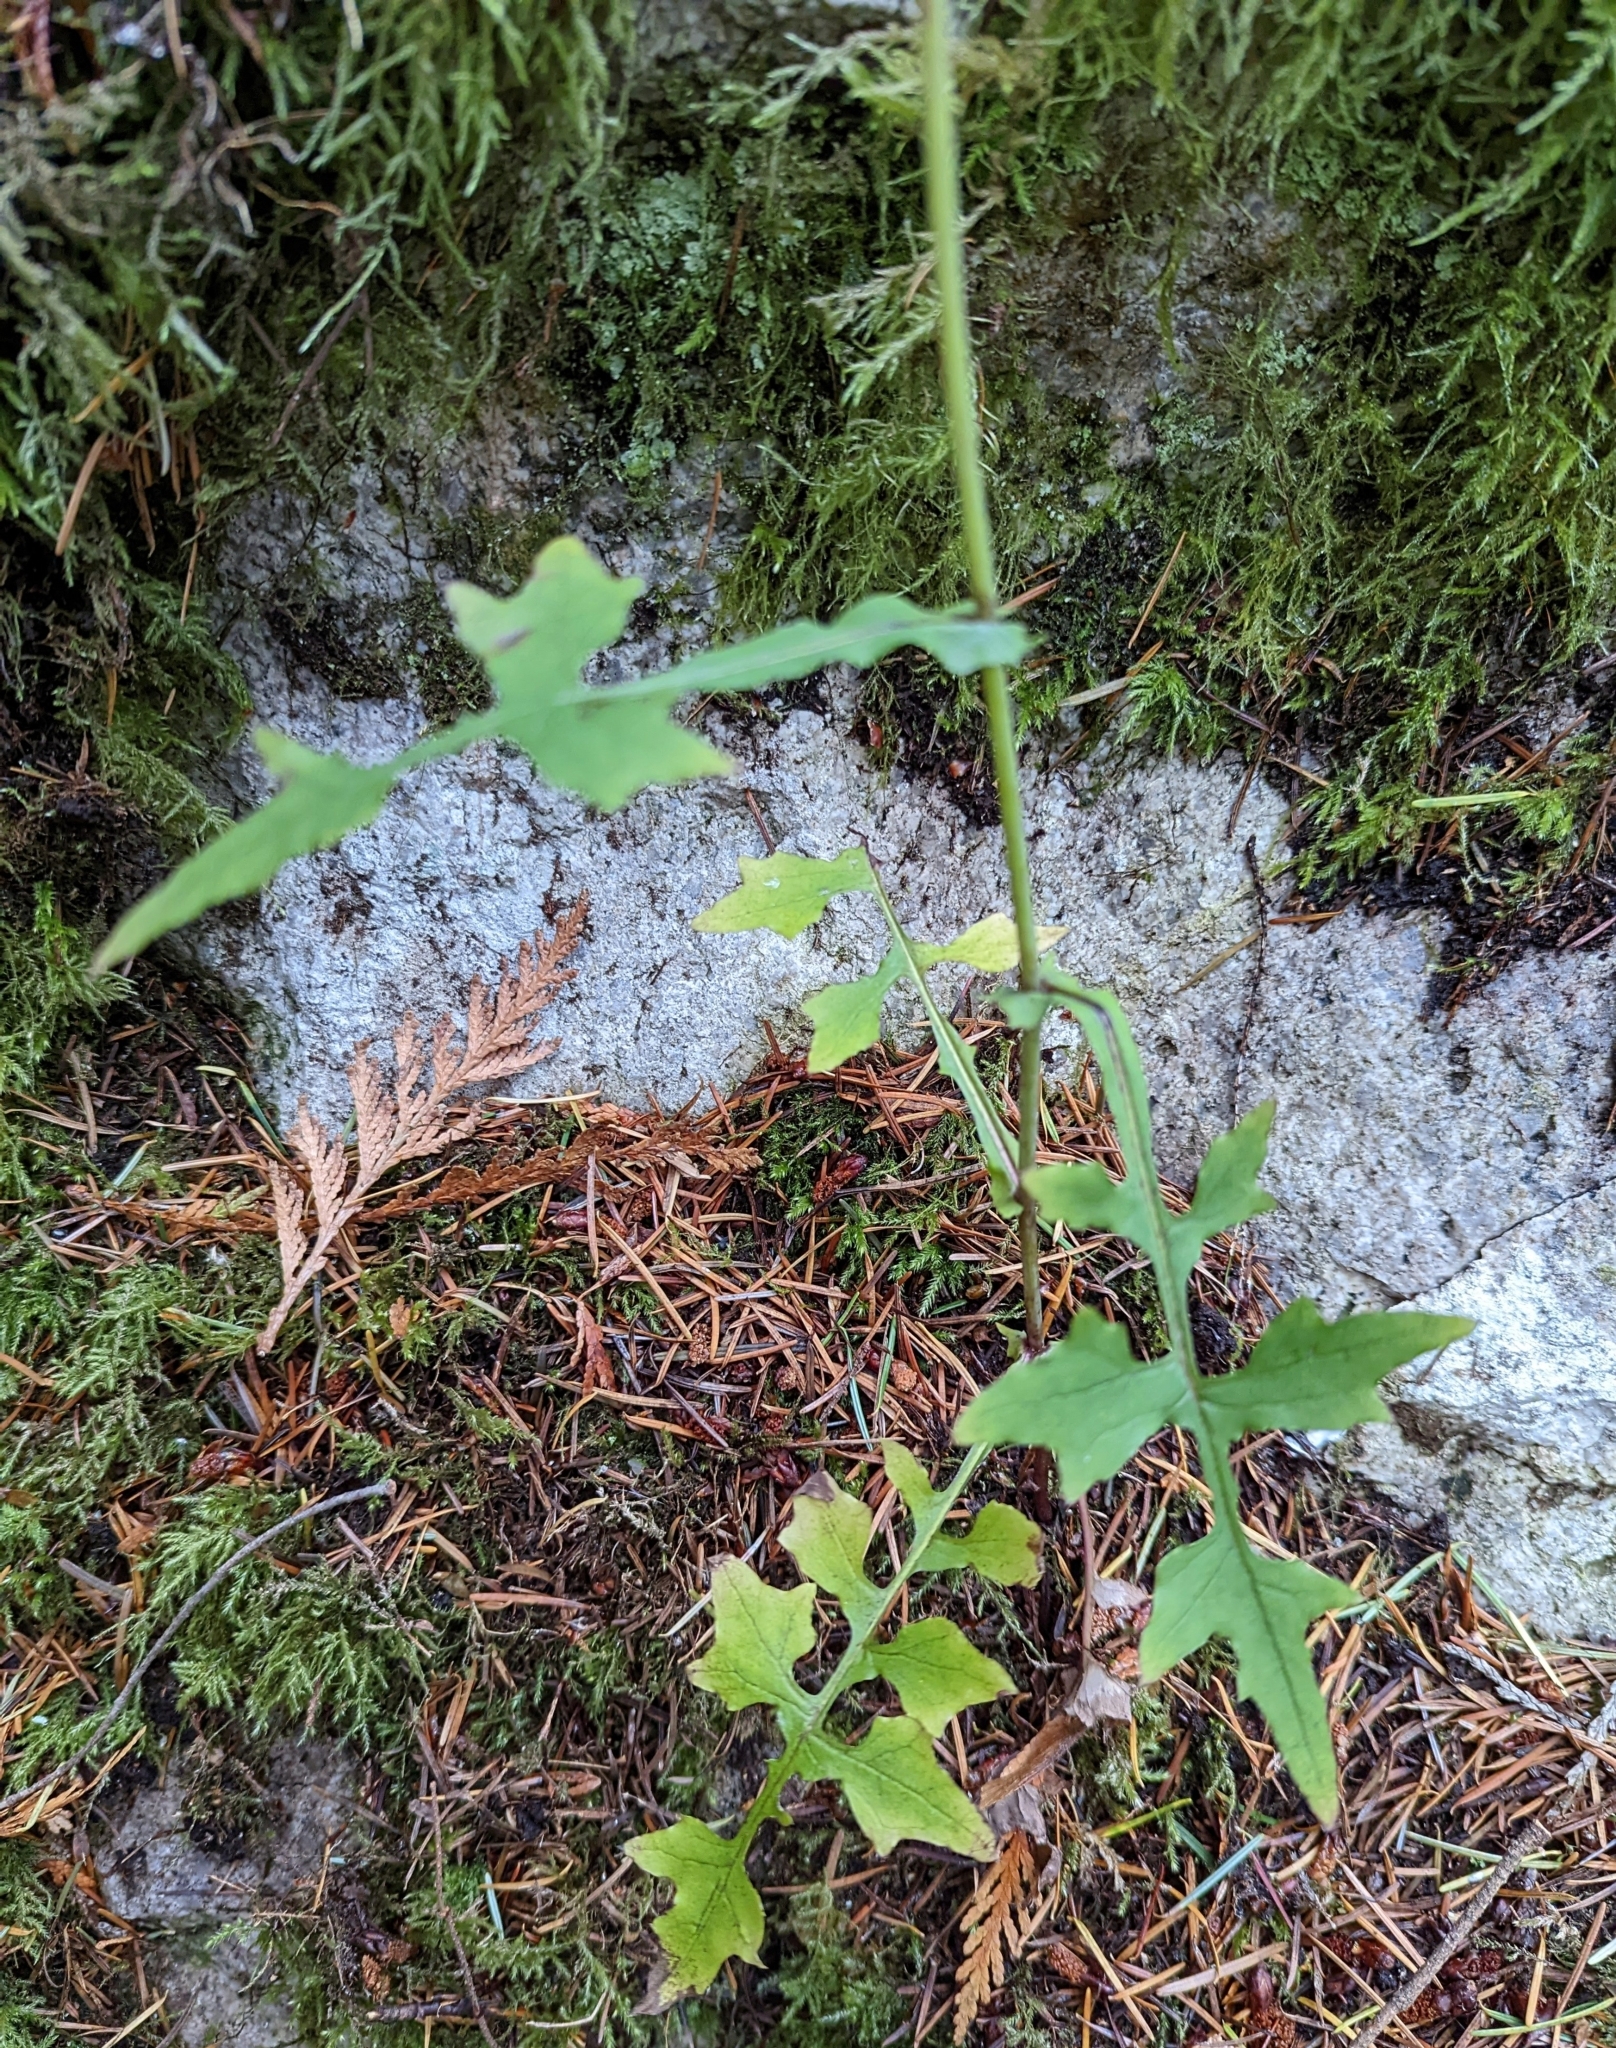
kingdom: Plantae
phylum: Tracheophyta
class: Magnoliopsida
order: Asterales
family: Asteraceae
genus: Mycelis
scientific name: Mycelis muralis
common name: Wall lettuce
